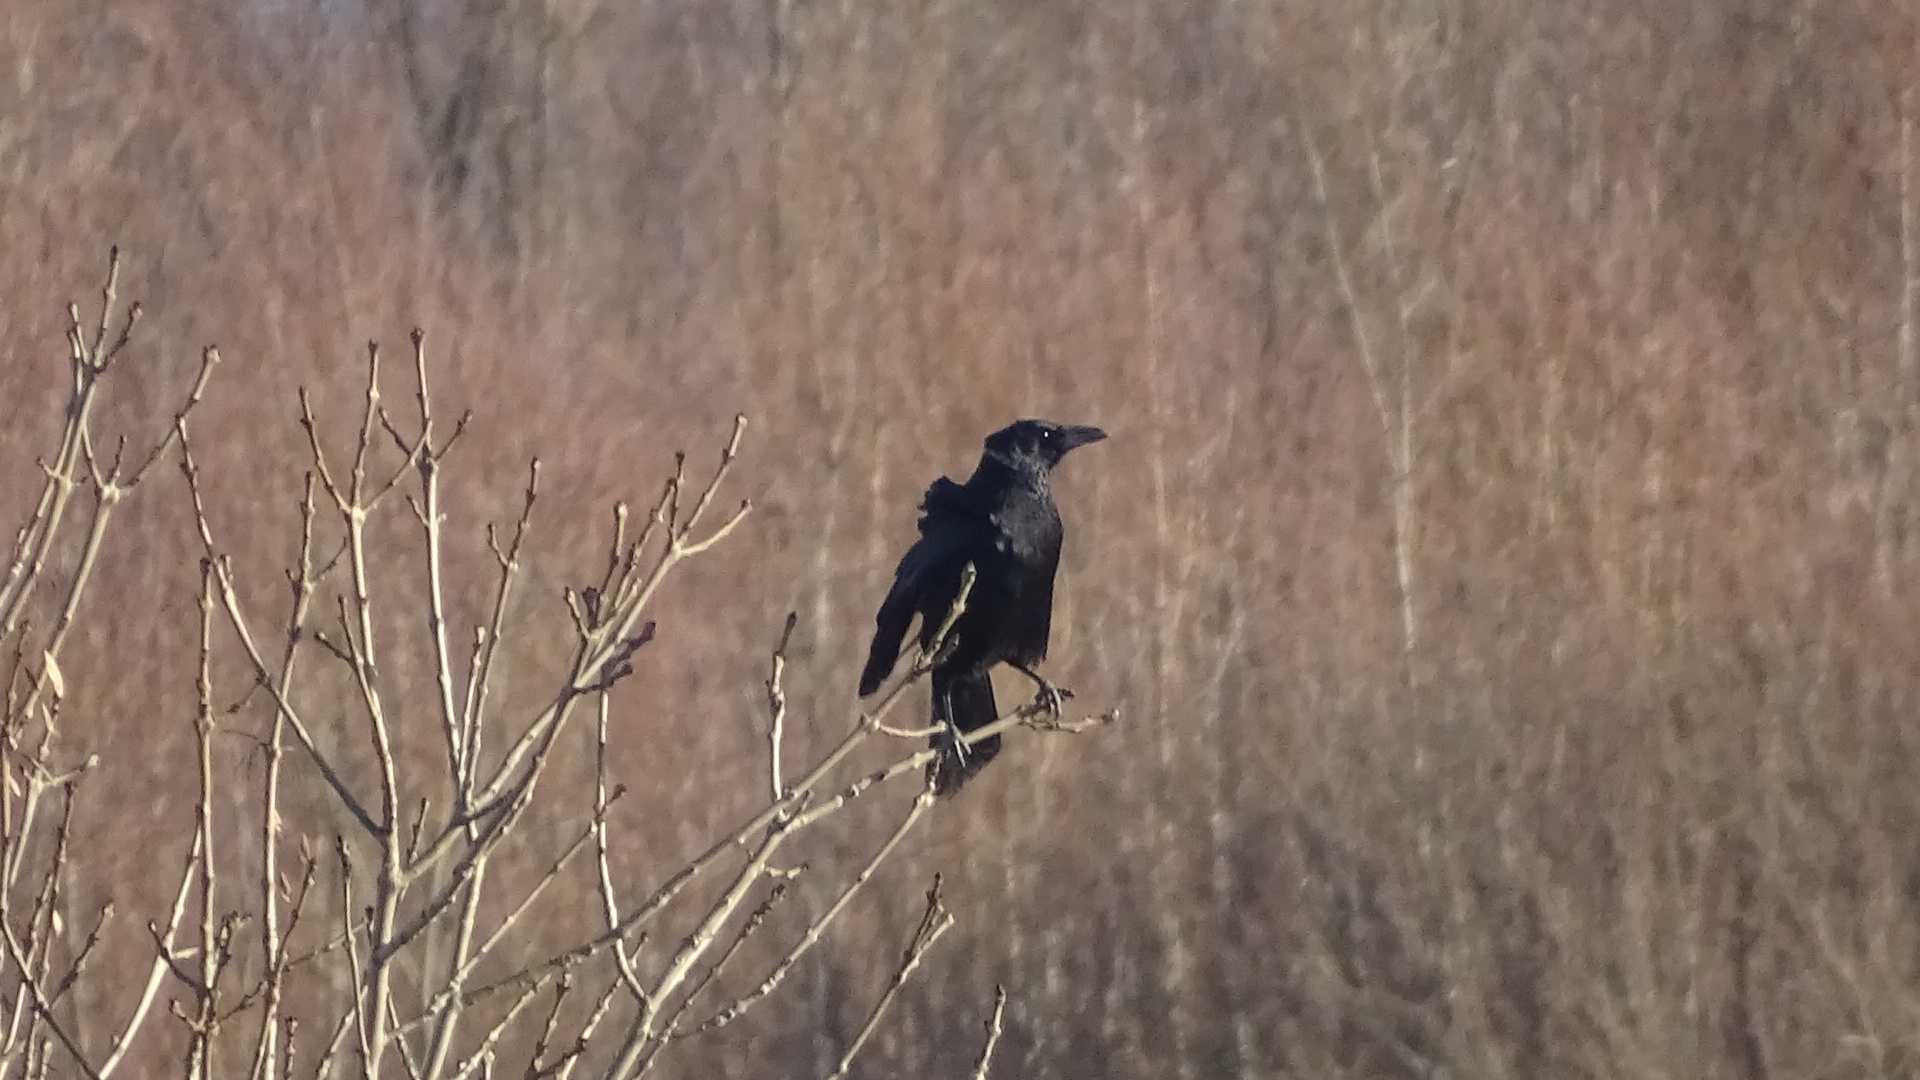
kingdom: Animalia
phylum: Chordata
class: Aves
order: Passeriformes
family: Corvidae
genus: Corvus
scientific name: Corvus corone
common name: Carrion crow
